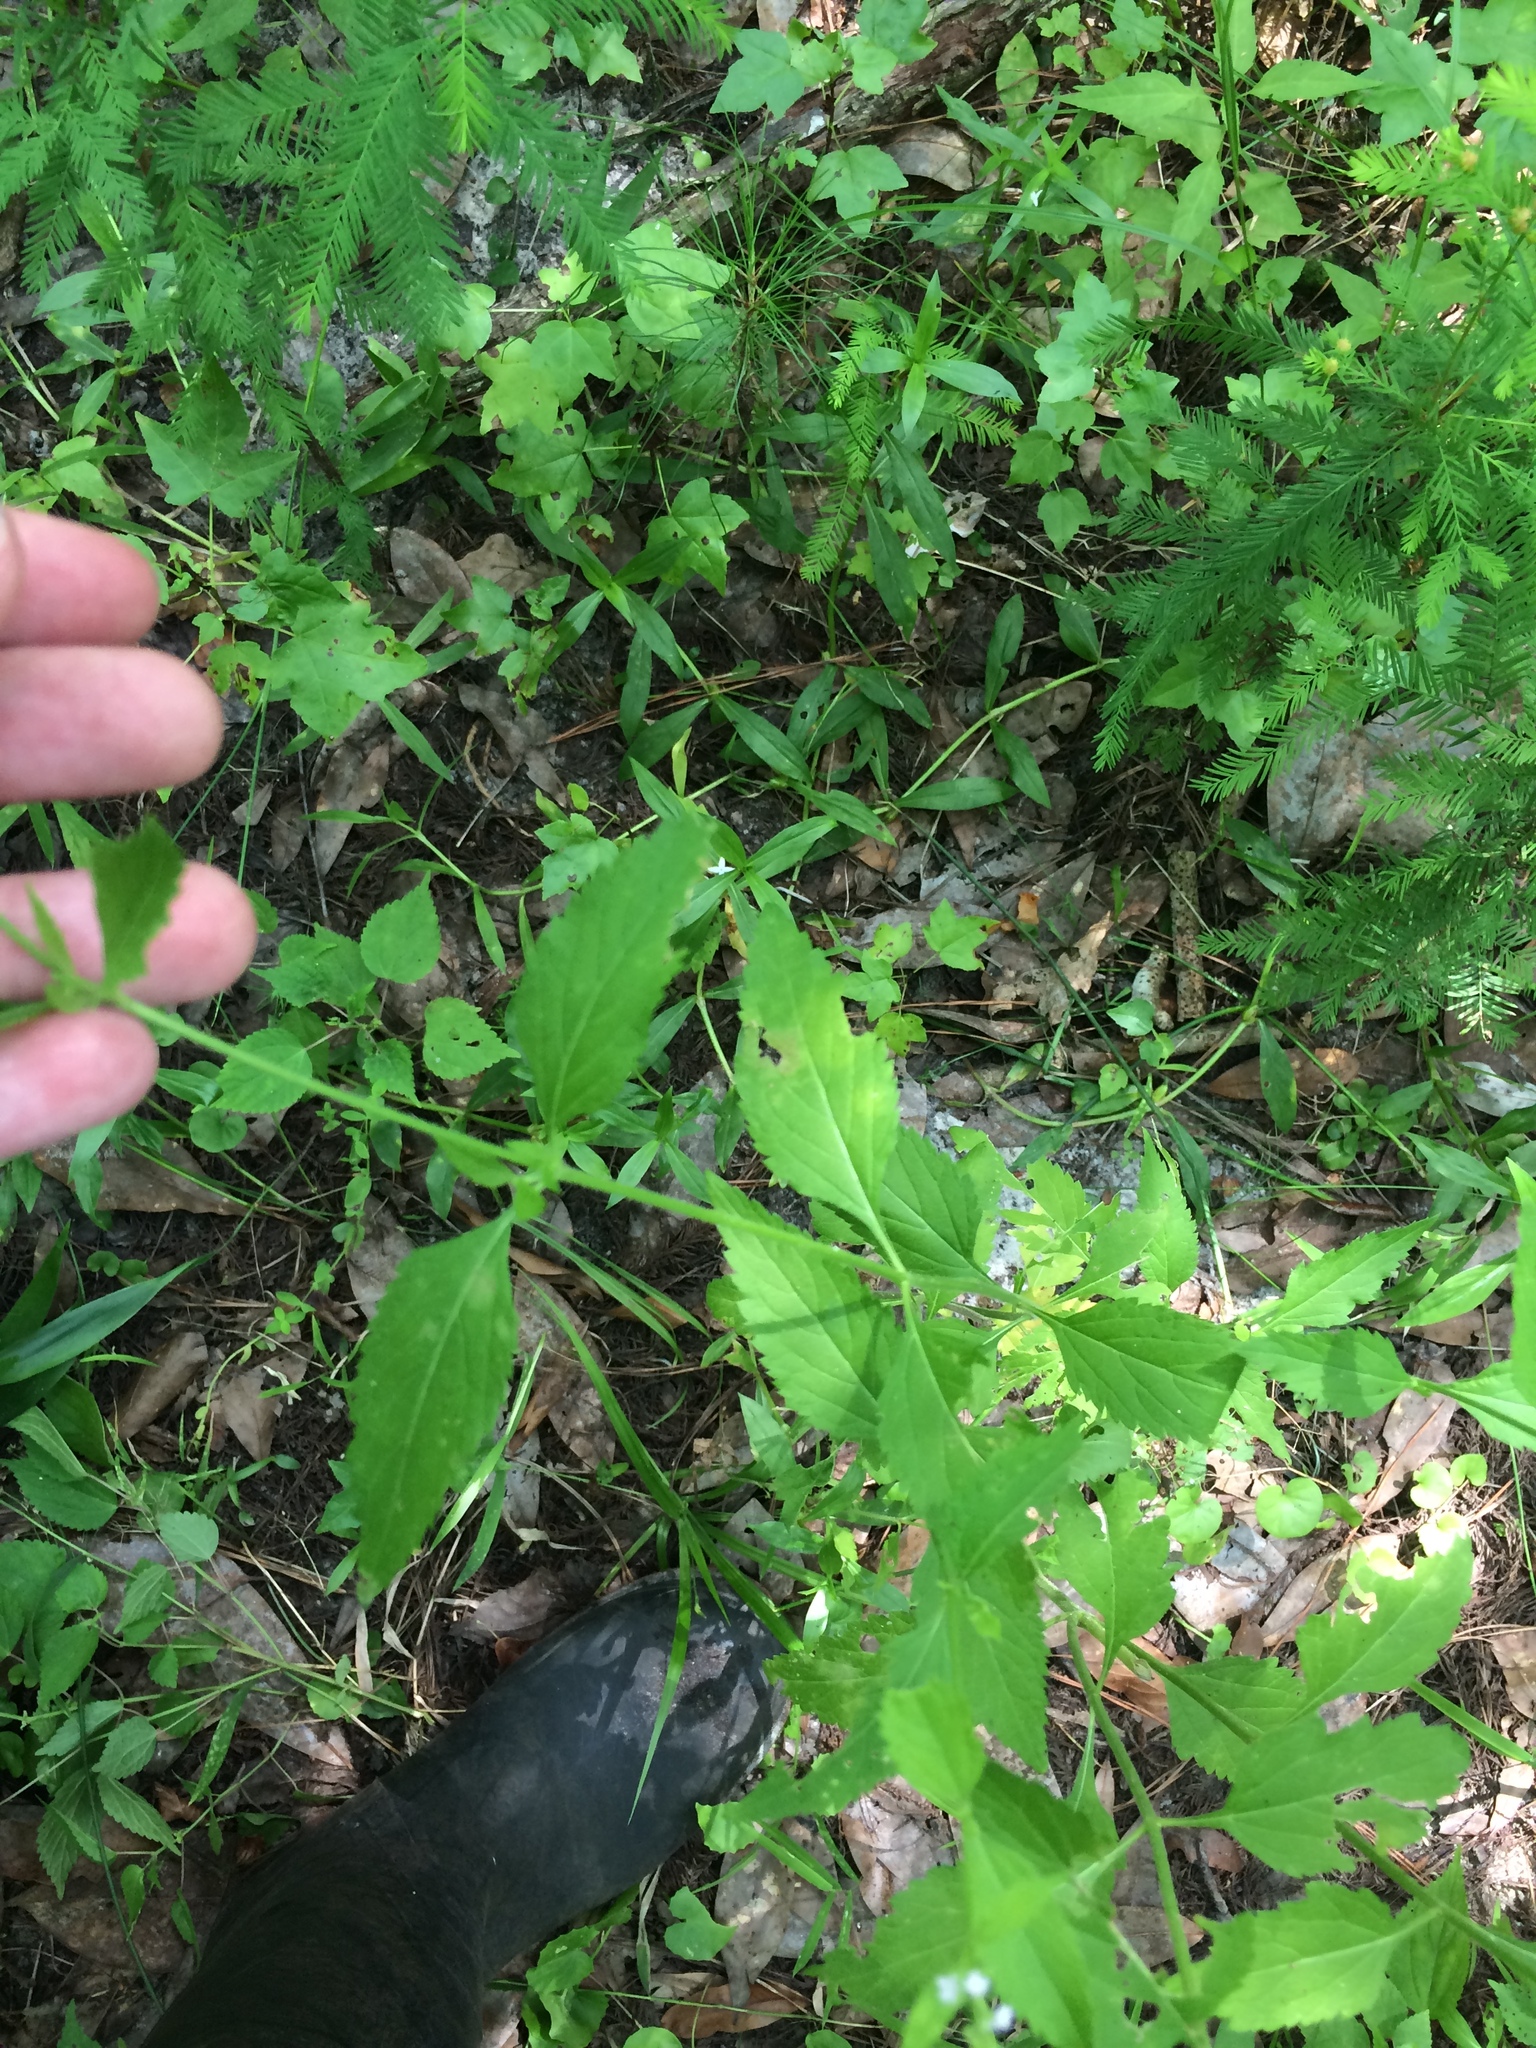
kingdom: Plantae
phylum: Tracheophyta
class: Magnoliopsida
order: Lamiales
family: Verbenaceae
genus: Verbena
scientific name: Verbena urticifolia
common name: Nettle-leaved vervain
